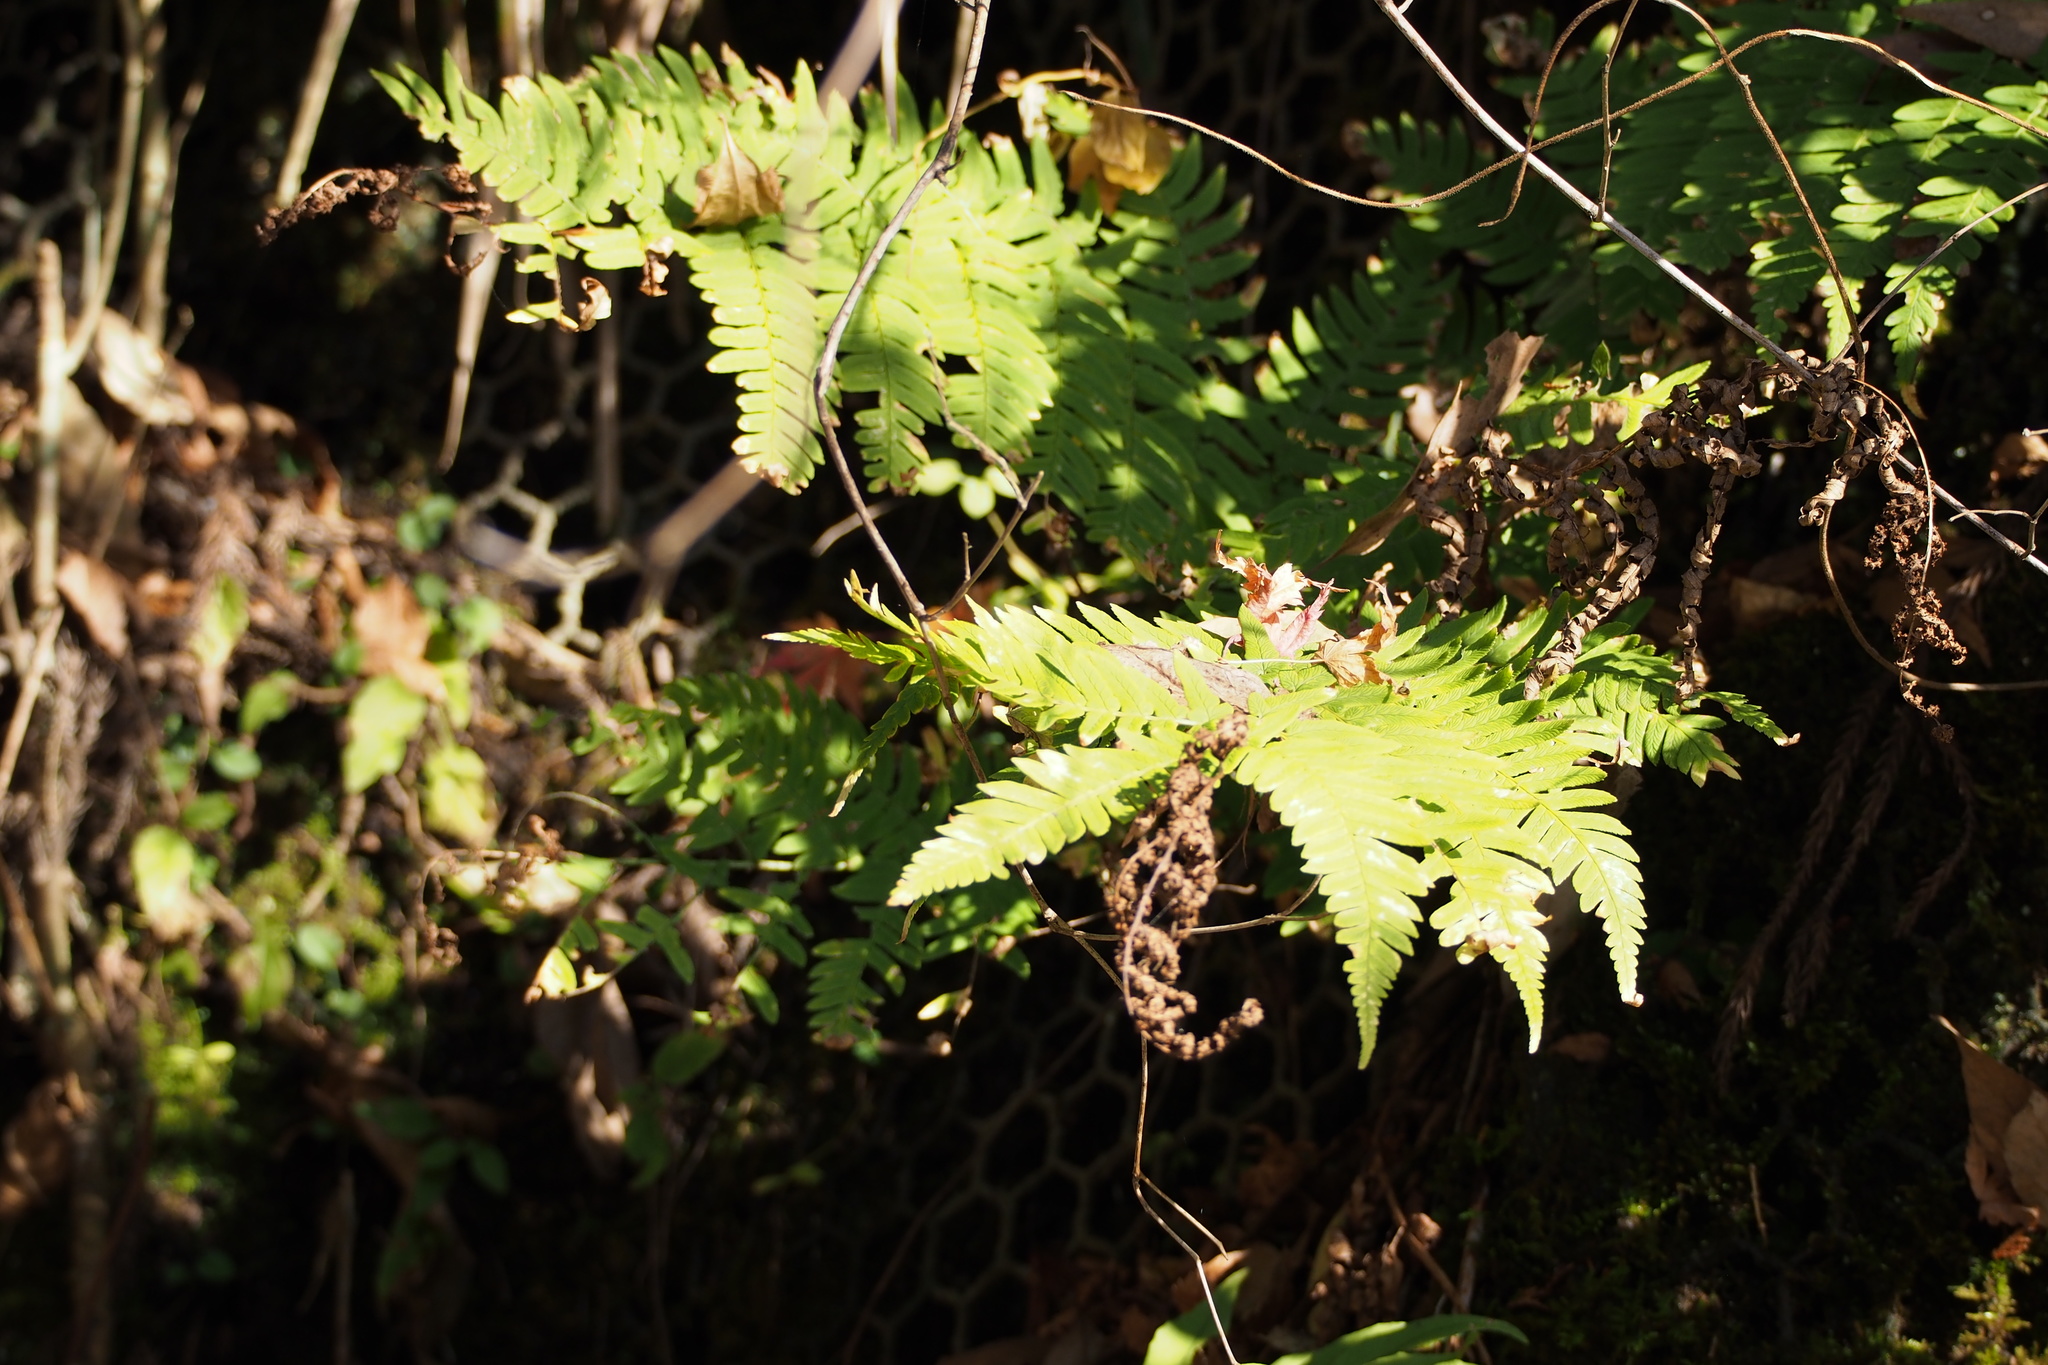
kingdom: Plantae
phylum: Tracheophyta
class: Polypodiopsida
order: Polypodiales
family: Dryopteridaceae
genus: Dryopteris
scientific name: Dryopteris lacera
